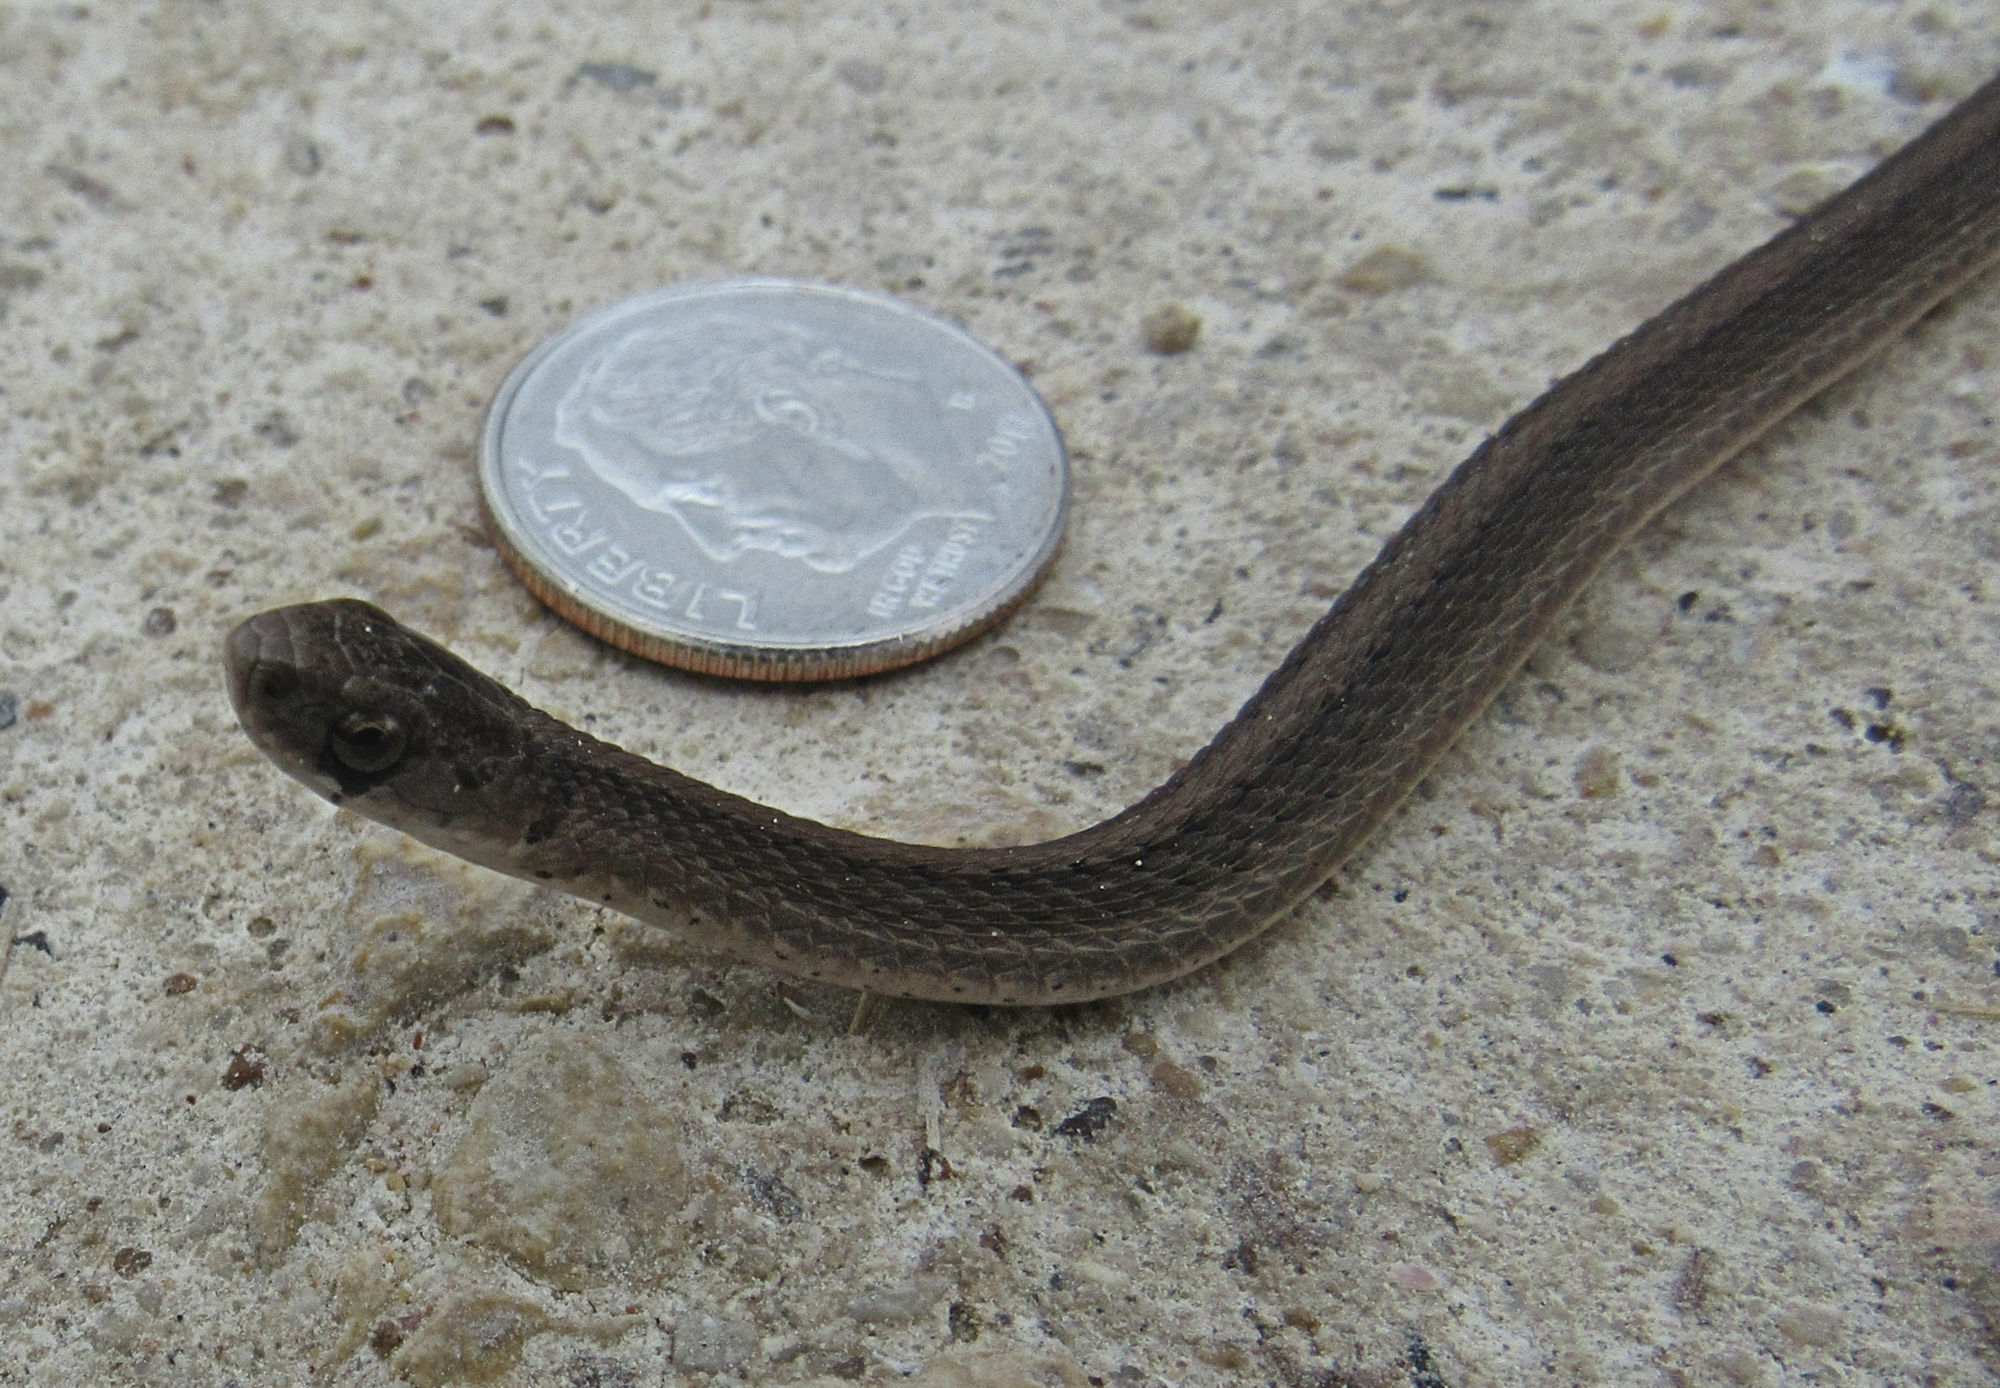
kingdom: Animalia
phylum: Chordata
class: Squamata
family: Colubridae
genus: Storeria
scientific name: Storeria dekayi
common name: (dekay’s) brown snake
